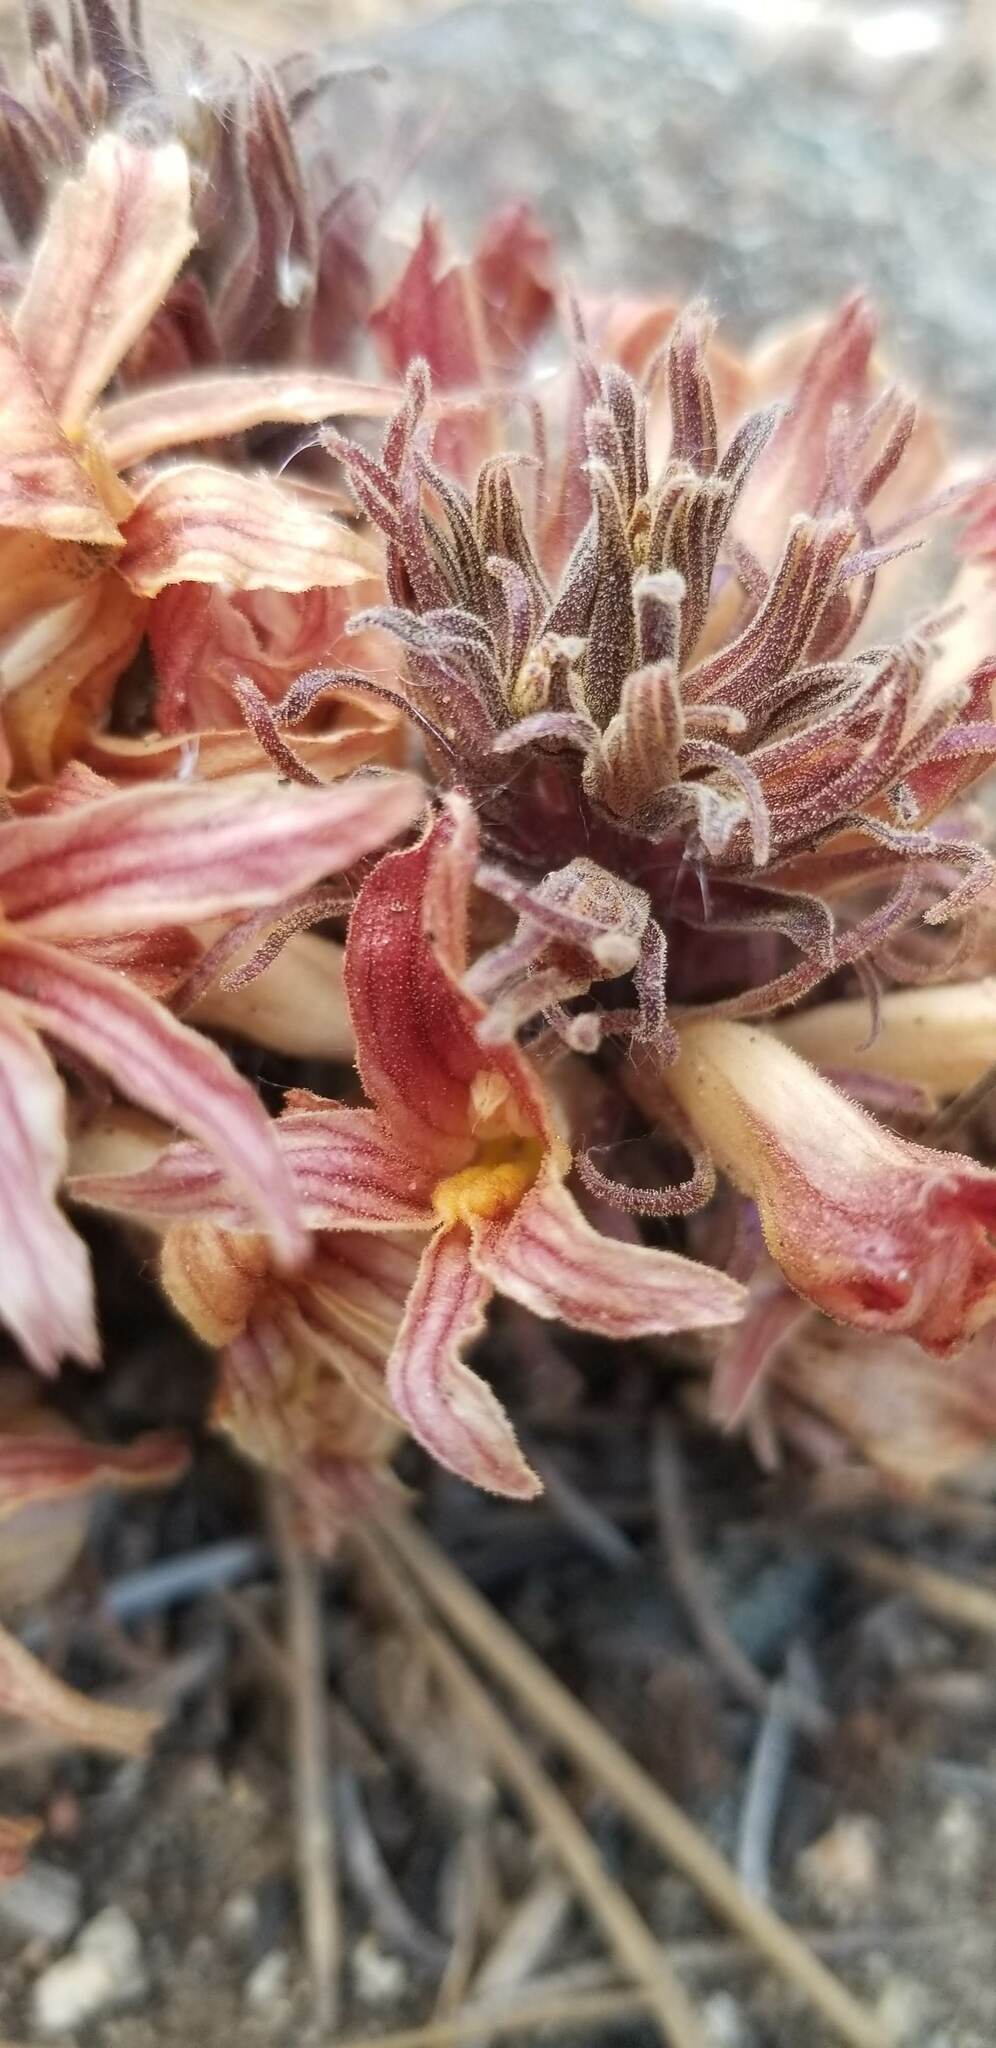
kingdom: Plantae
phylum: Tracheophyta
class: Magnoliopsida
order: Lamiales
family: Orobanchaceae
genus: Aphyllon
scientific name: Aphyllon californicum
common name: California broomrape
